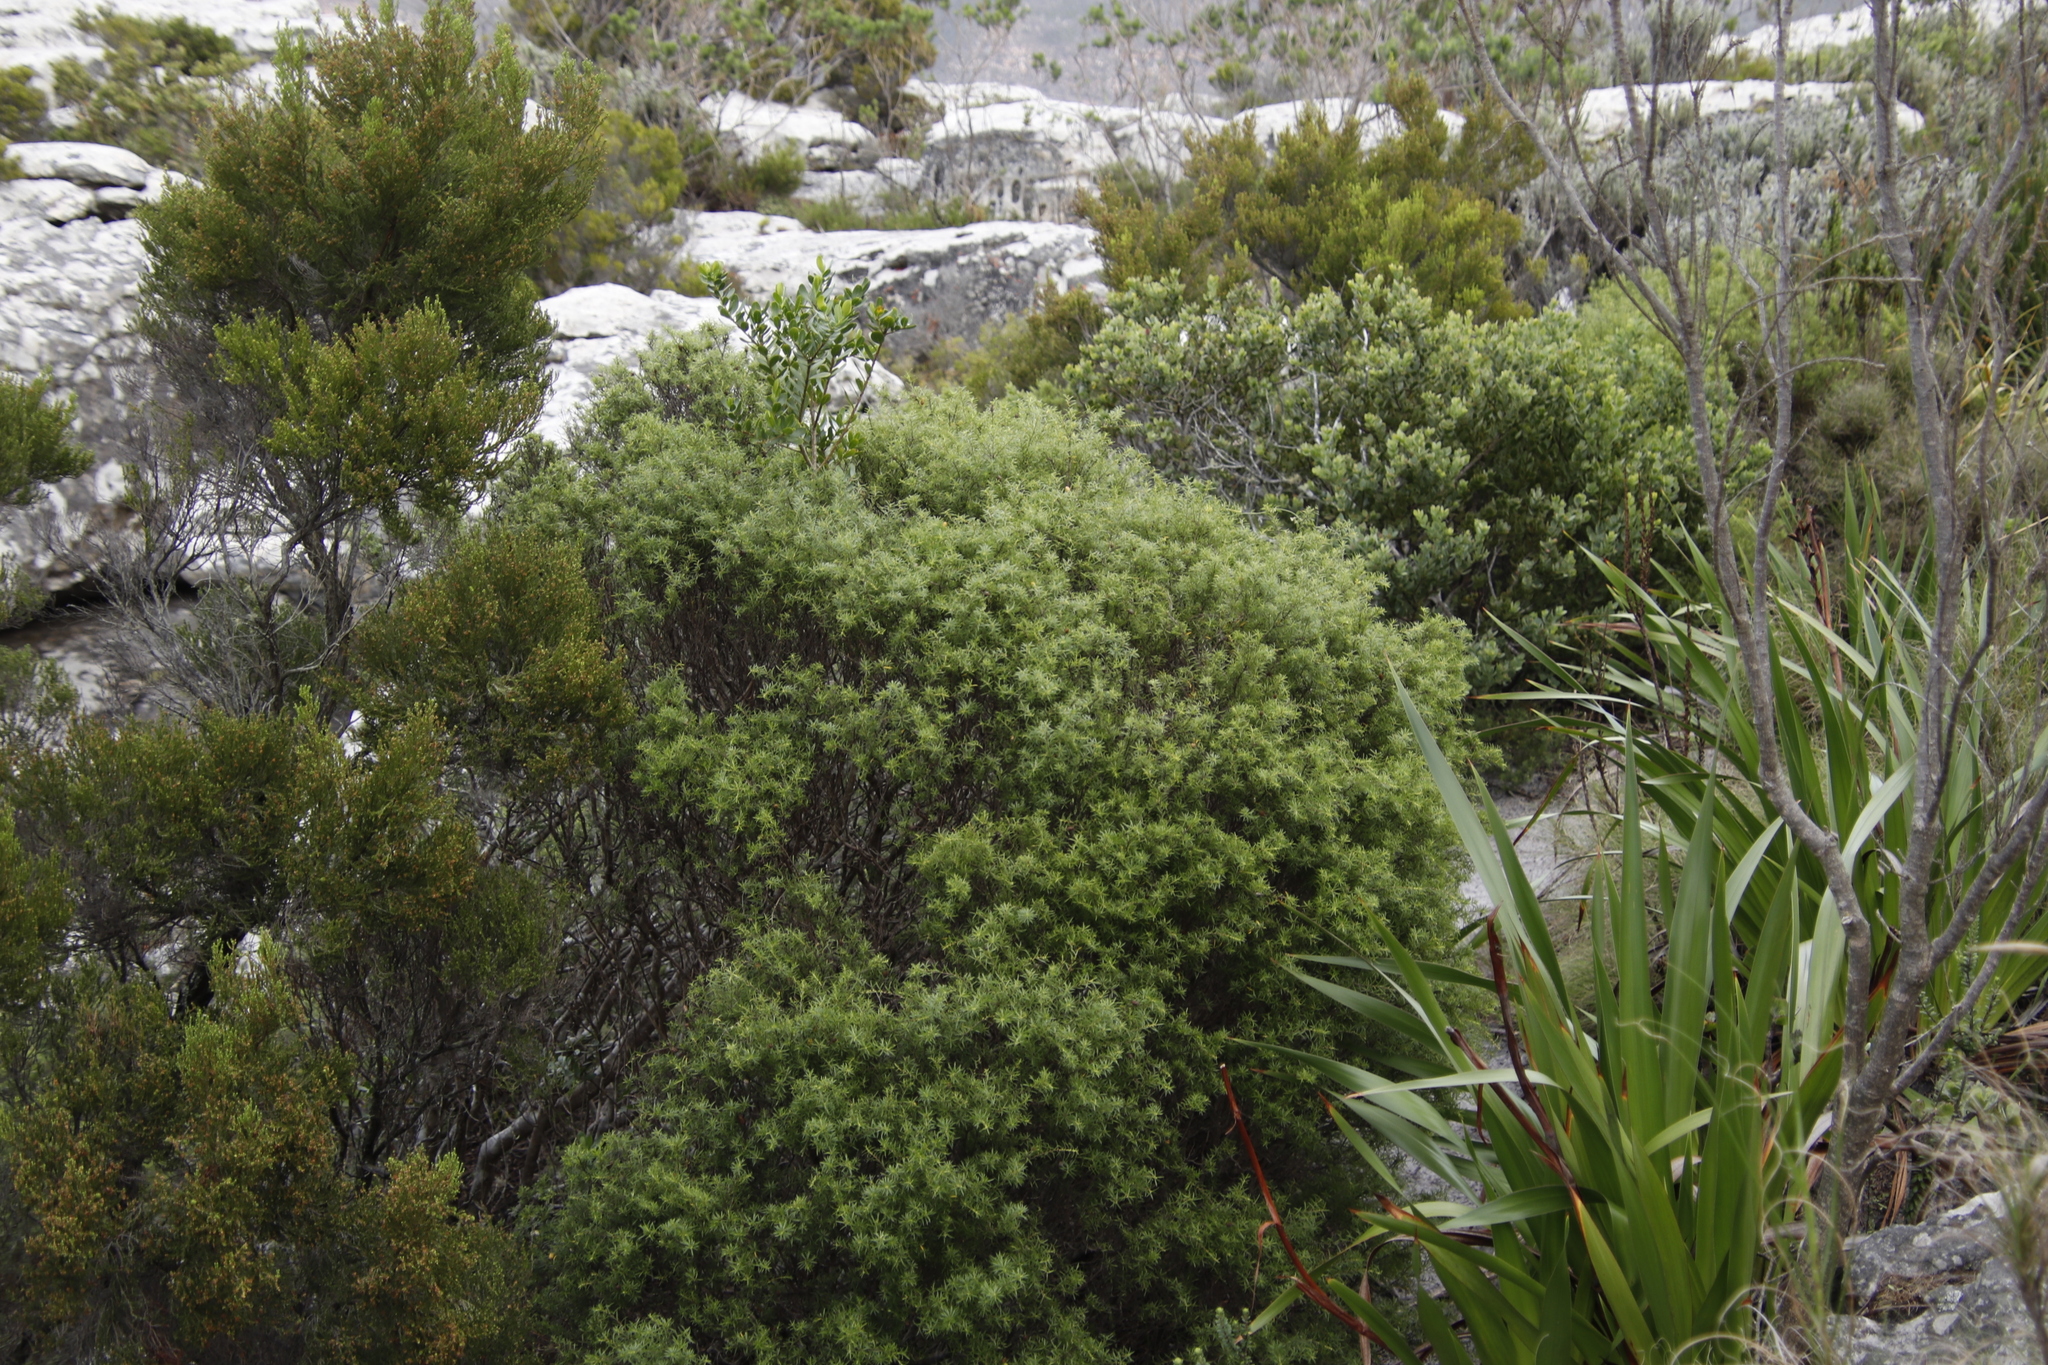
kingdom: Plantae
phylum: Tracheophyta
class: Magnoliopsida
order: Sapindales
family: Rutaceae
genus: Coleonema
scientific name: Coleonema album
